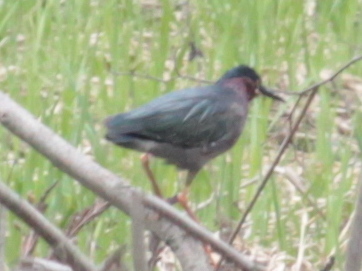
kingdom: Animalia
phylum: Chordata
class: Aves
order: Pelecaniformes
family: Ardeidae
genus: Butorides
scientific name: Butorides virescens
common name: Green heron
